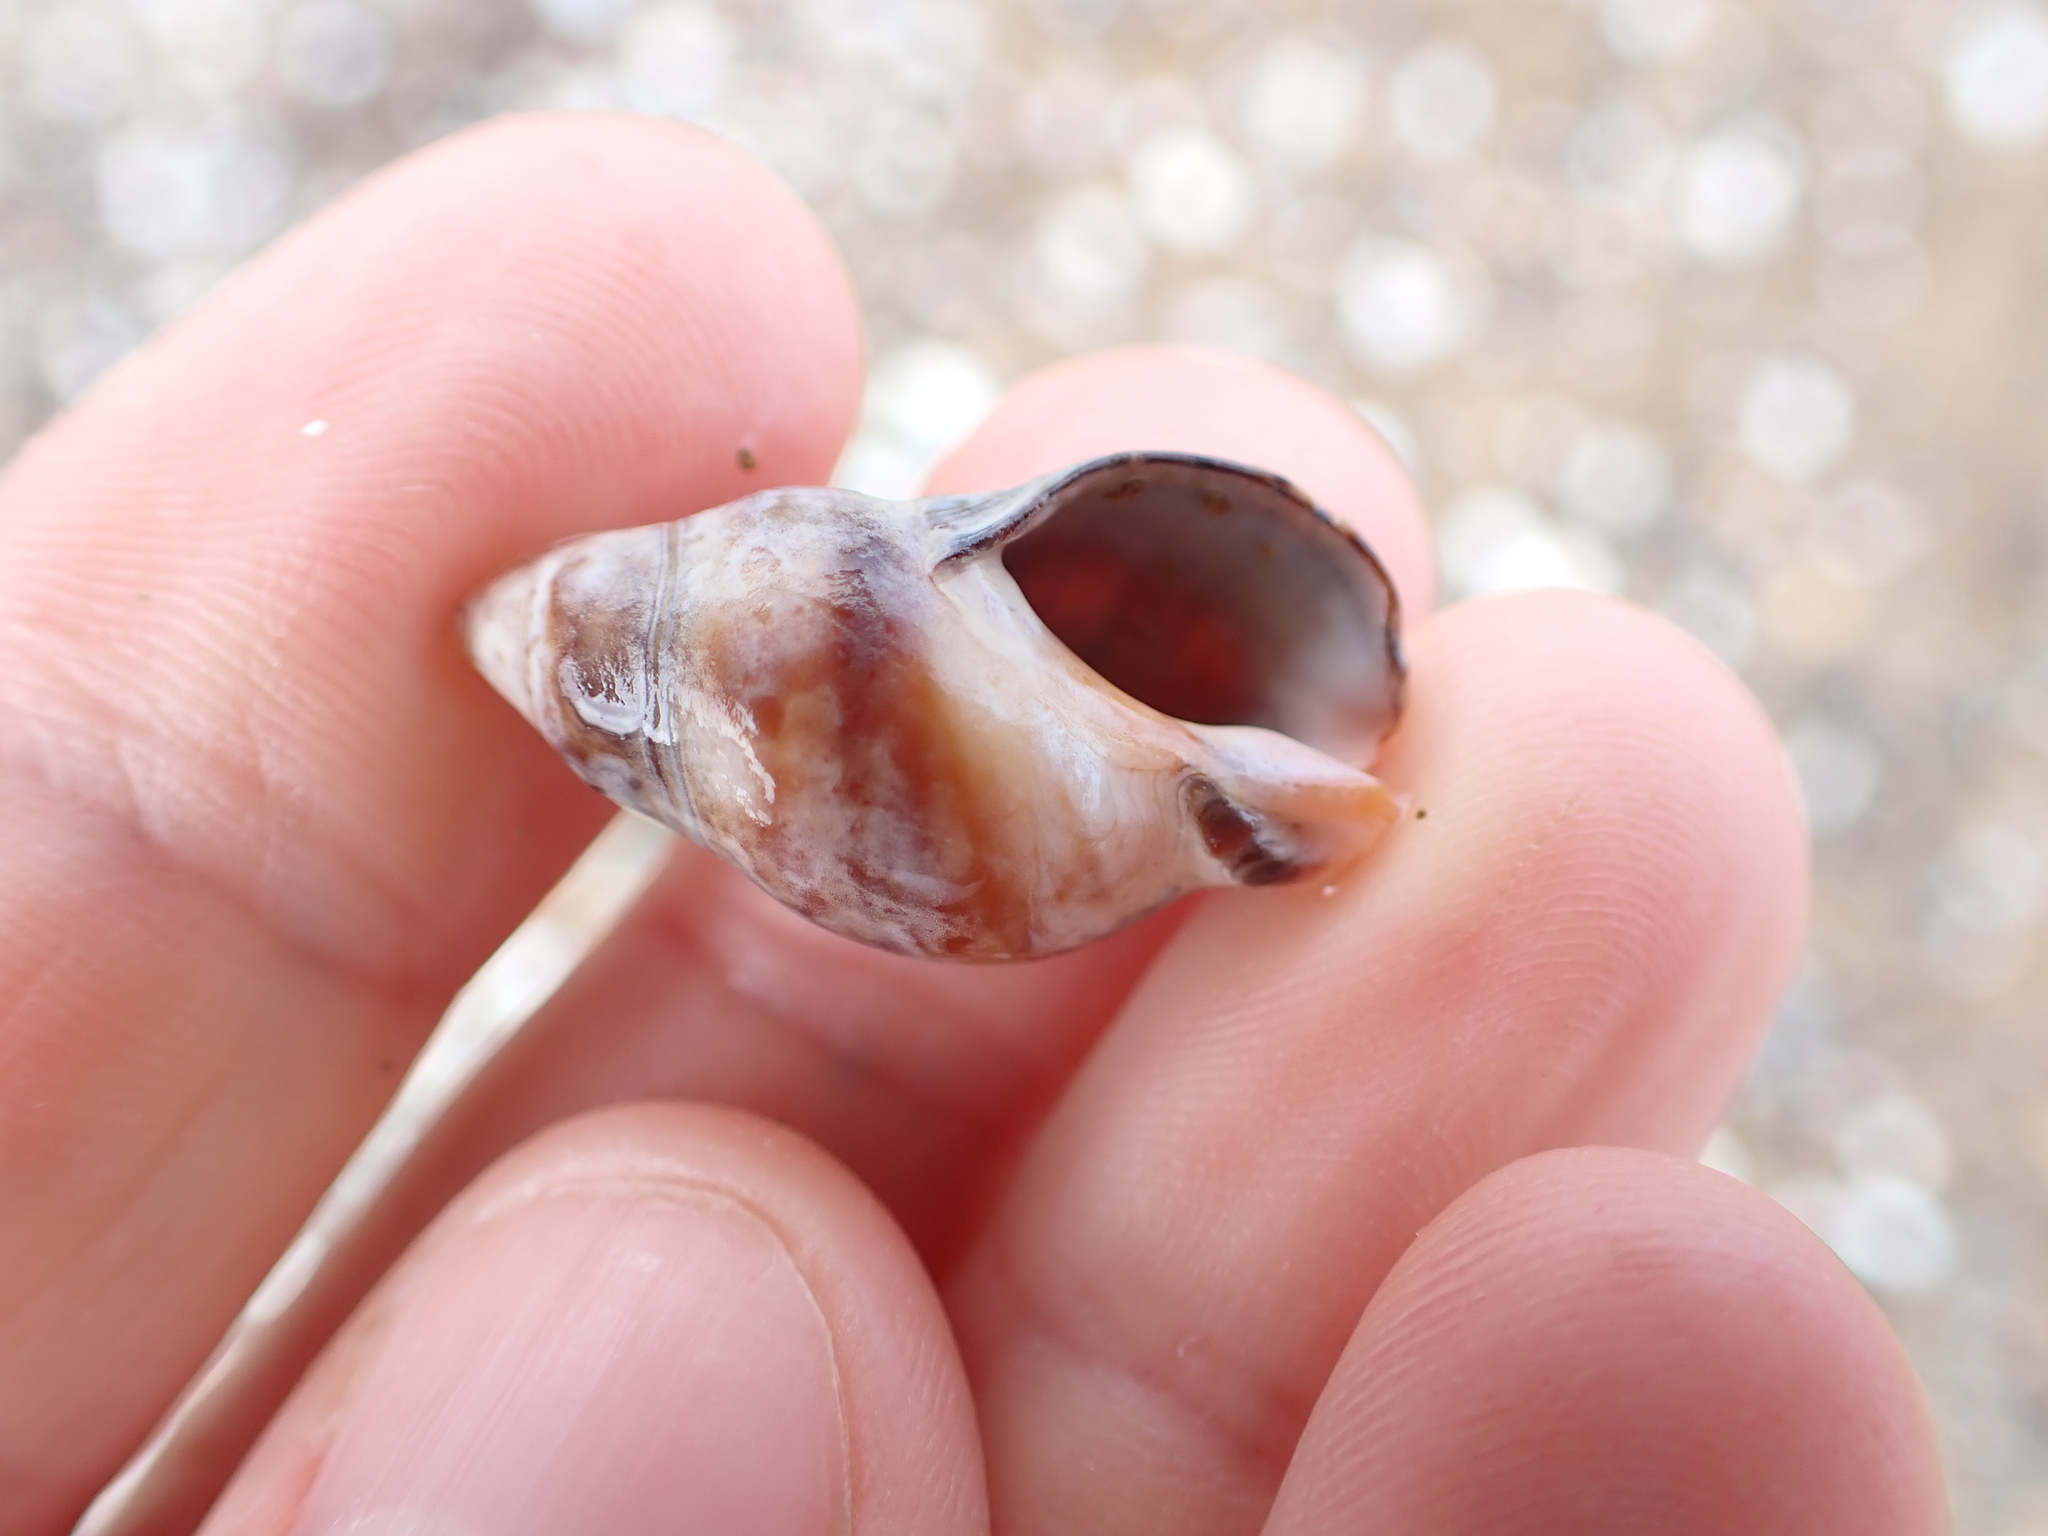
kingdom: Animalia
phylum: Mollusca
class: Gastropoda
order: Neogastropoda
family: Cominellidae
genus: Cominella
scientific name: Cominella virgata
